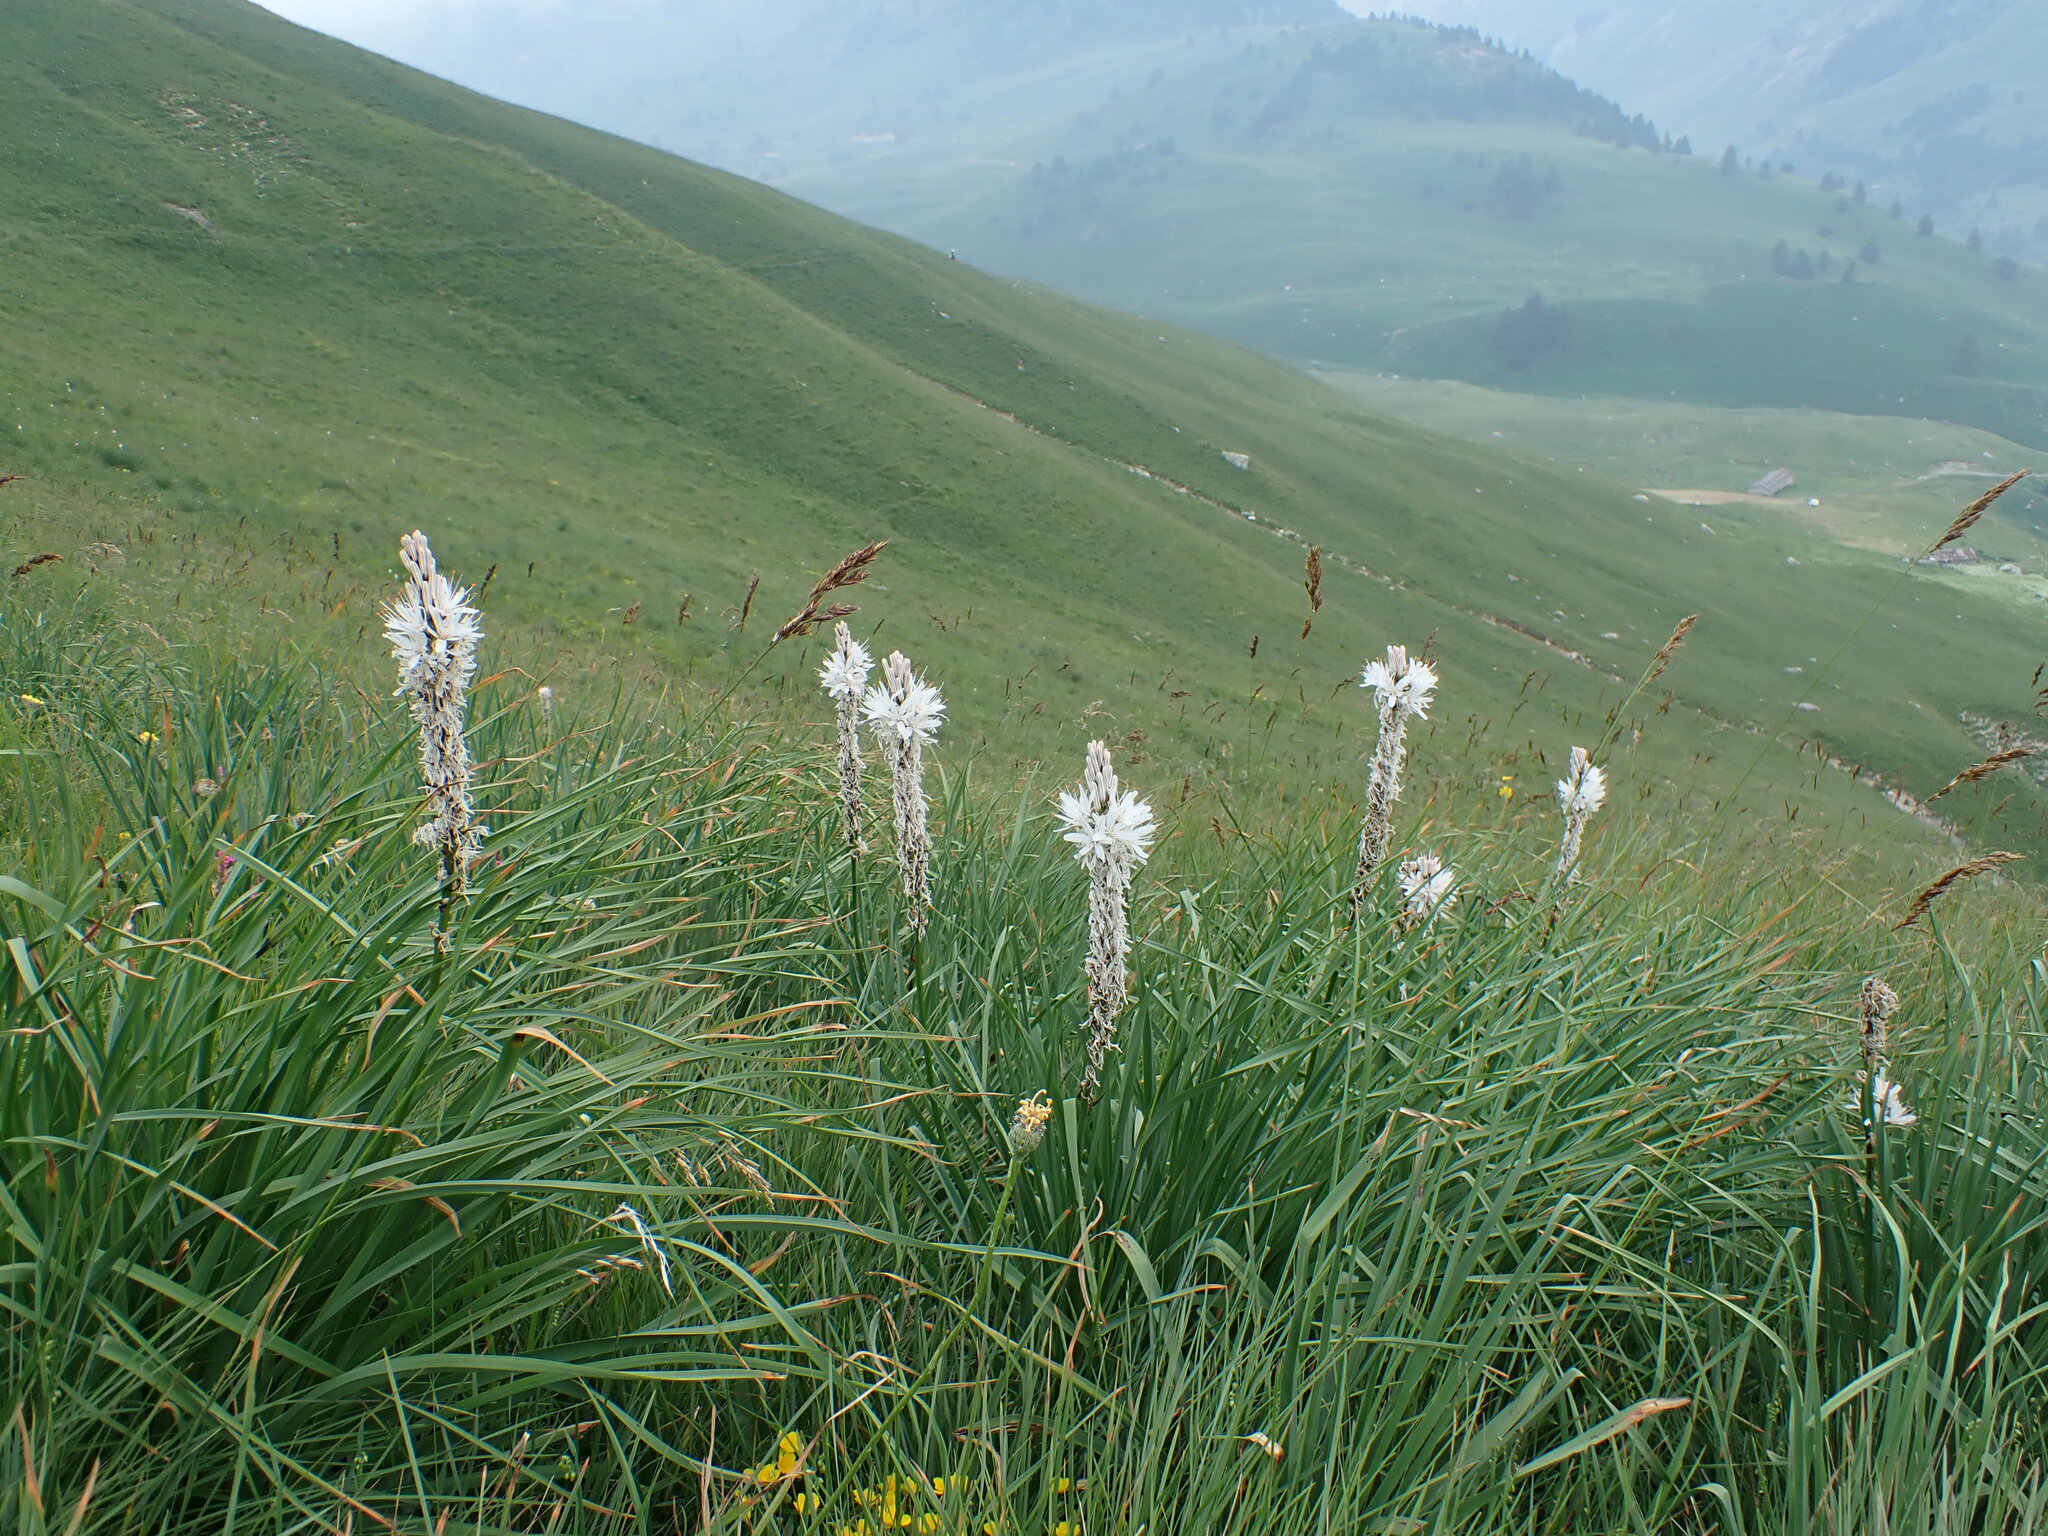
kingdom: Plantae
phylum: Tracheophyta
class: Liliopsida
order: Asparagales
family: Asphodelaceae
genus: Asphodelus
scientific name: Asphodelus albus
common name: White asphodel
